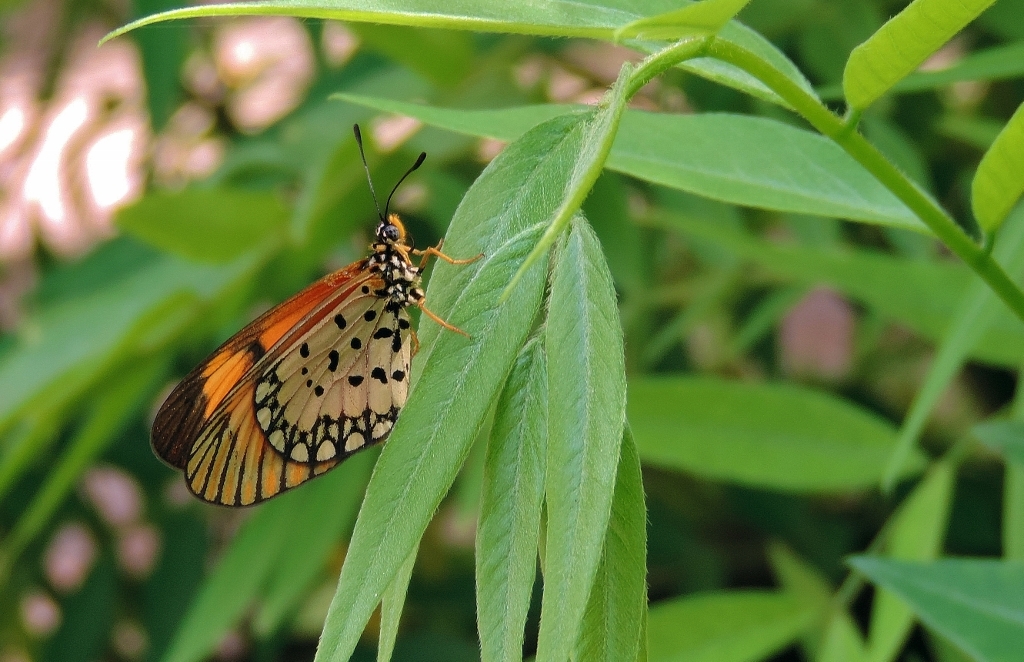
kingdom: Animalia
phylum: Arthropoda
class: Insecta
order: Lepidoptera
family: Nymphalidae
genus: Acraea
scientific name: Acraea Telchinia serena
